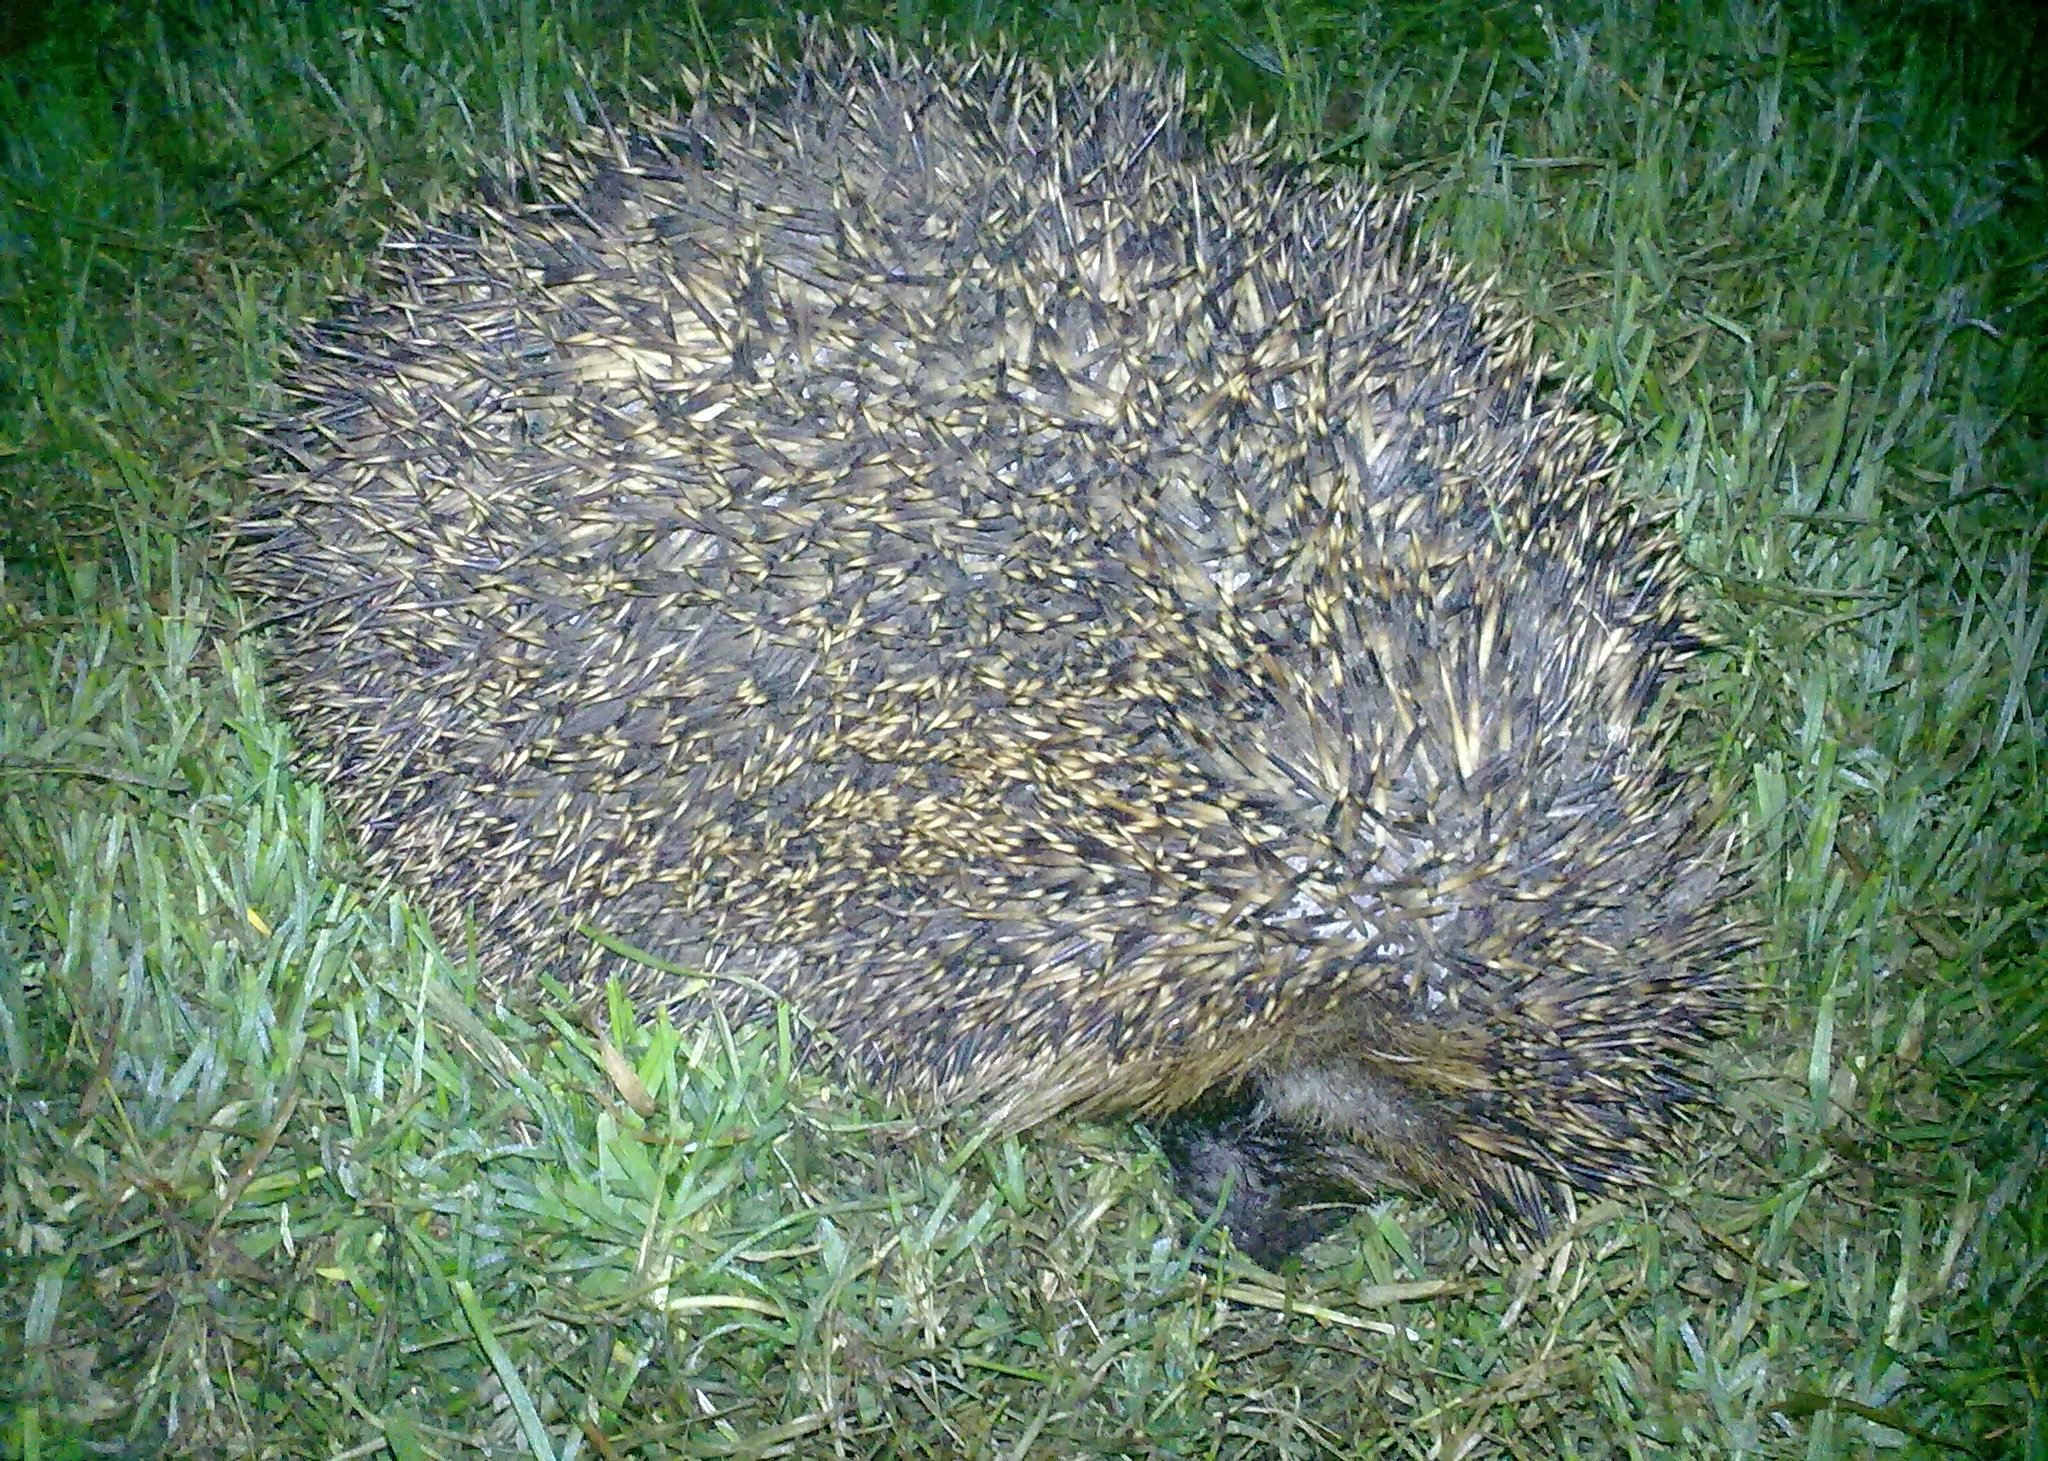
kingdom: Animalia
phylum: Chordata
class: Mammalia
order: Erinaceomorpha
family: Erinaceidae
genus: Erinaceus
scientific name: Erinaceus roumanicus
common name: Northern white-breasted hedgehog
